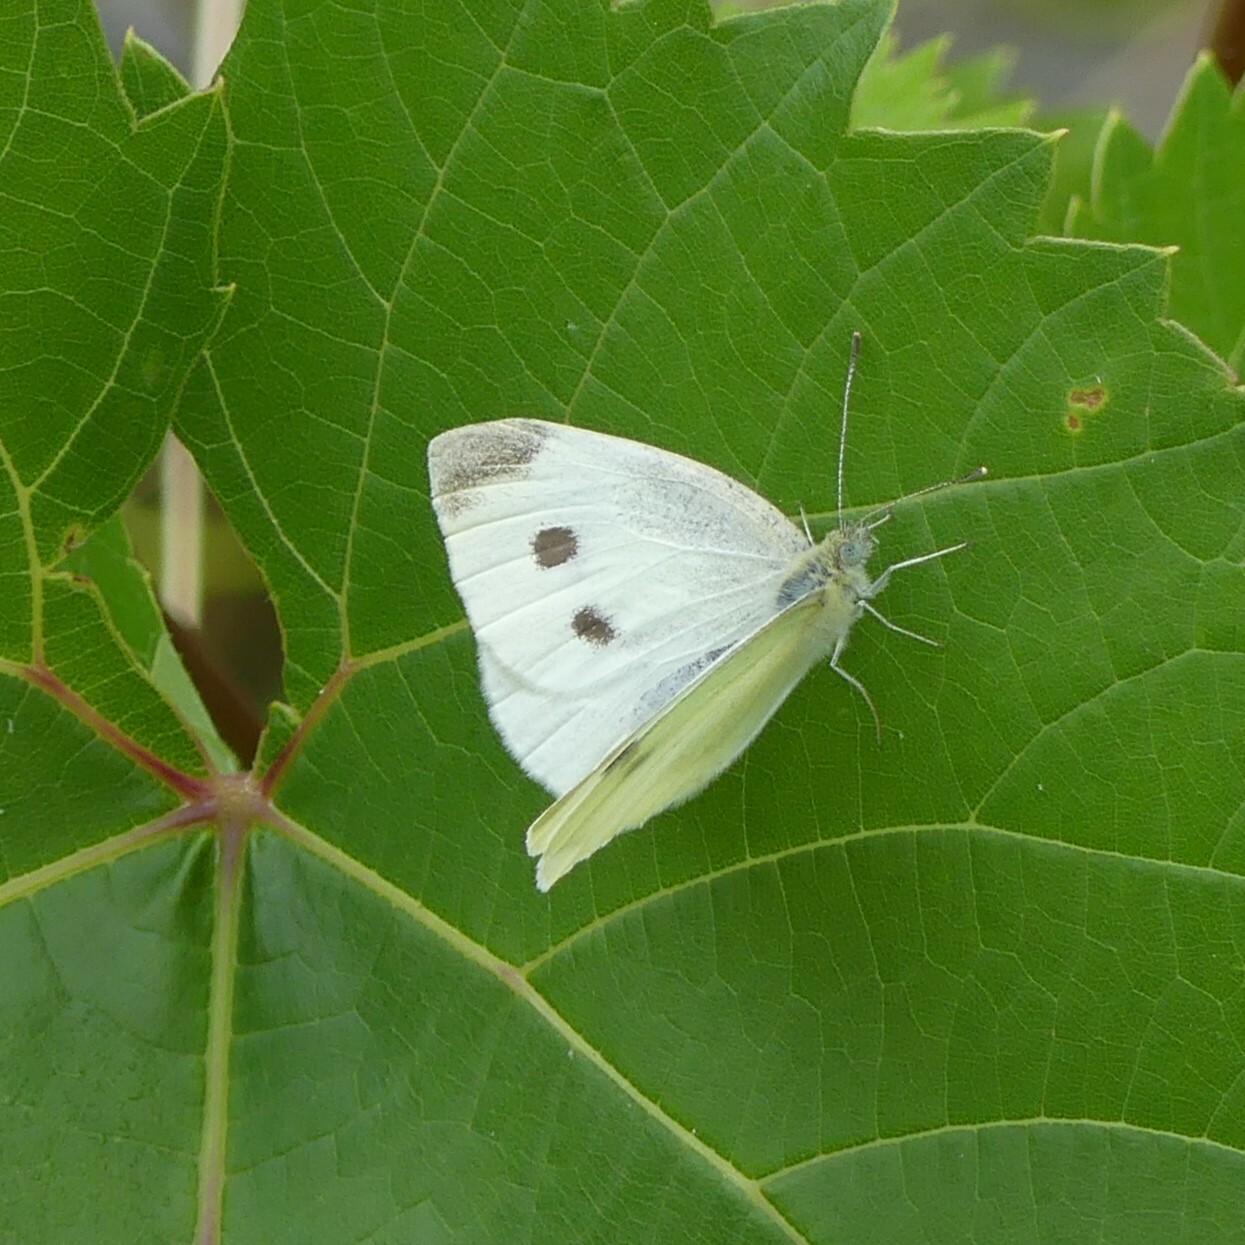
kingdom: Animalia
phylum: Arthropoda
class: Insecta
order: Lepidoptera
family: Pieridae
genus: Pieris
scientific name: Pieris rapae
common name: Small white
